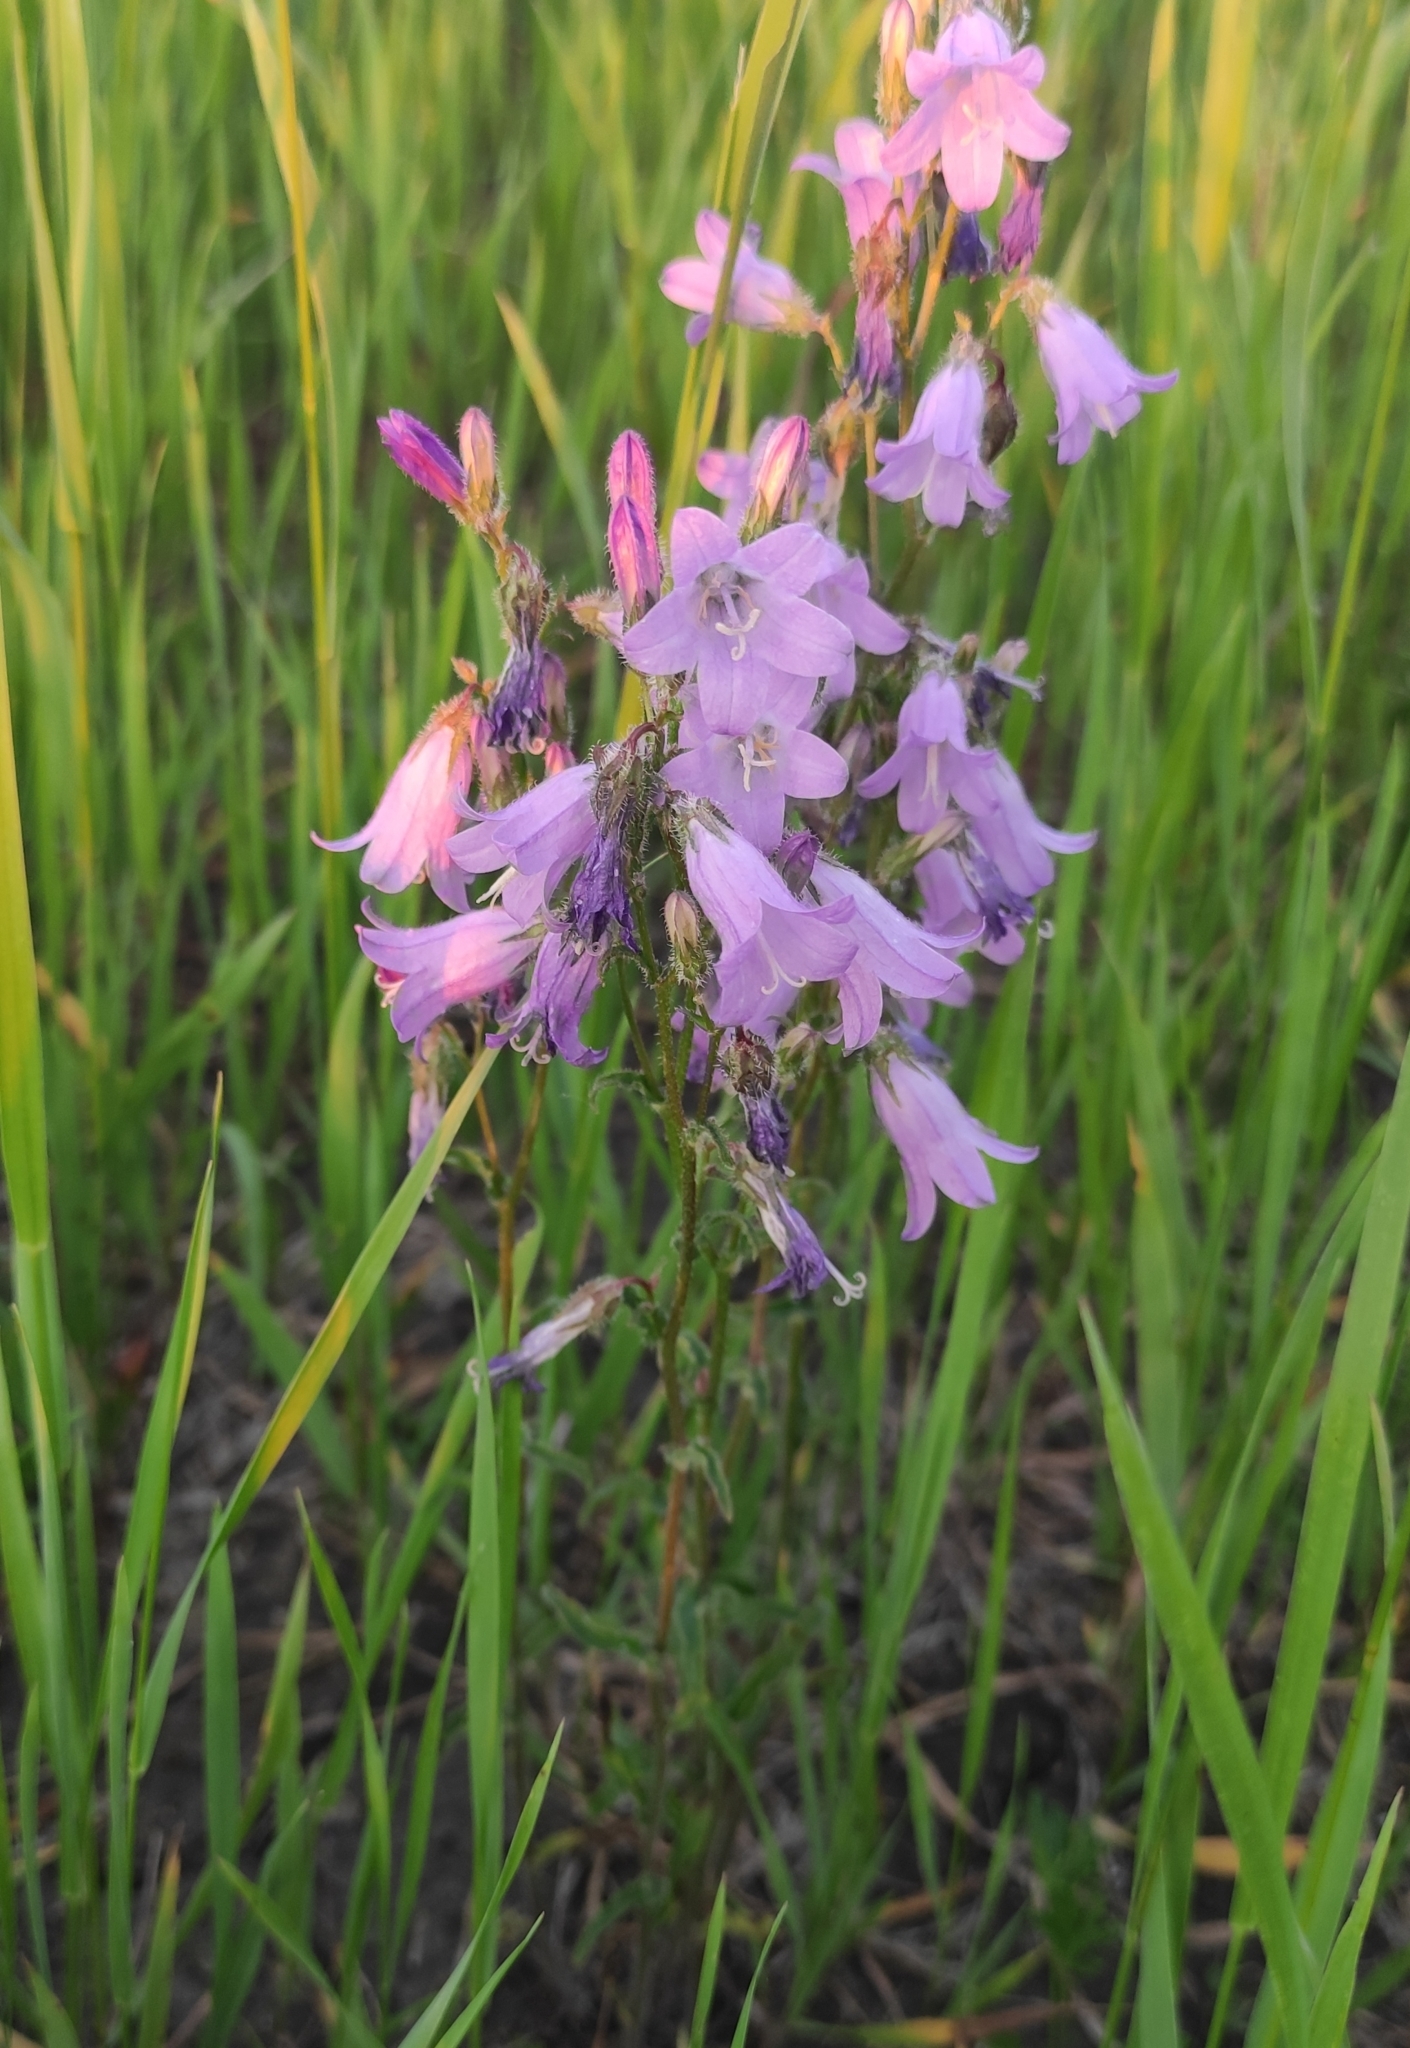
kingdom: Plantae
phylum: Tracheophyta
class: Magnoliopsida
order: Asterales
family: Campanulaceae
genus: Campanula
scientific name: Campanula sibirica
